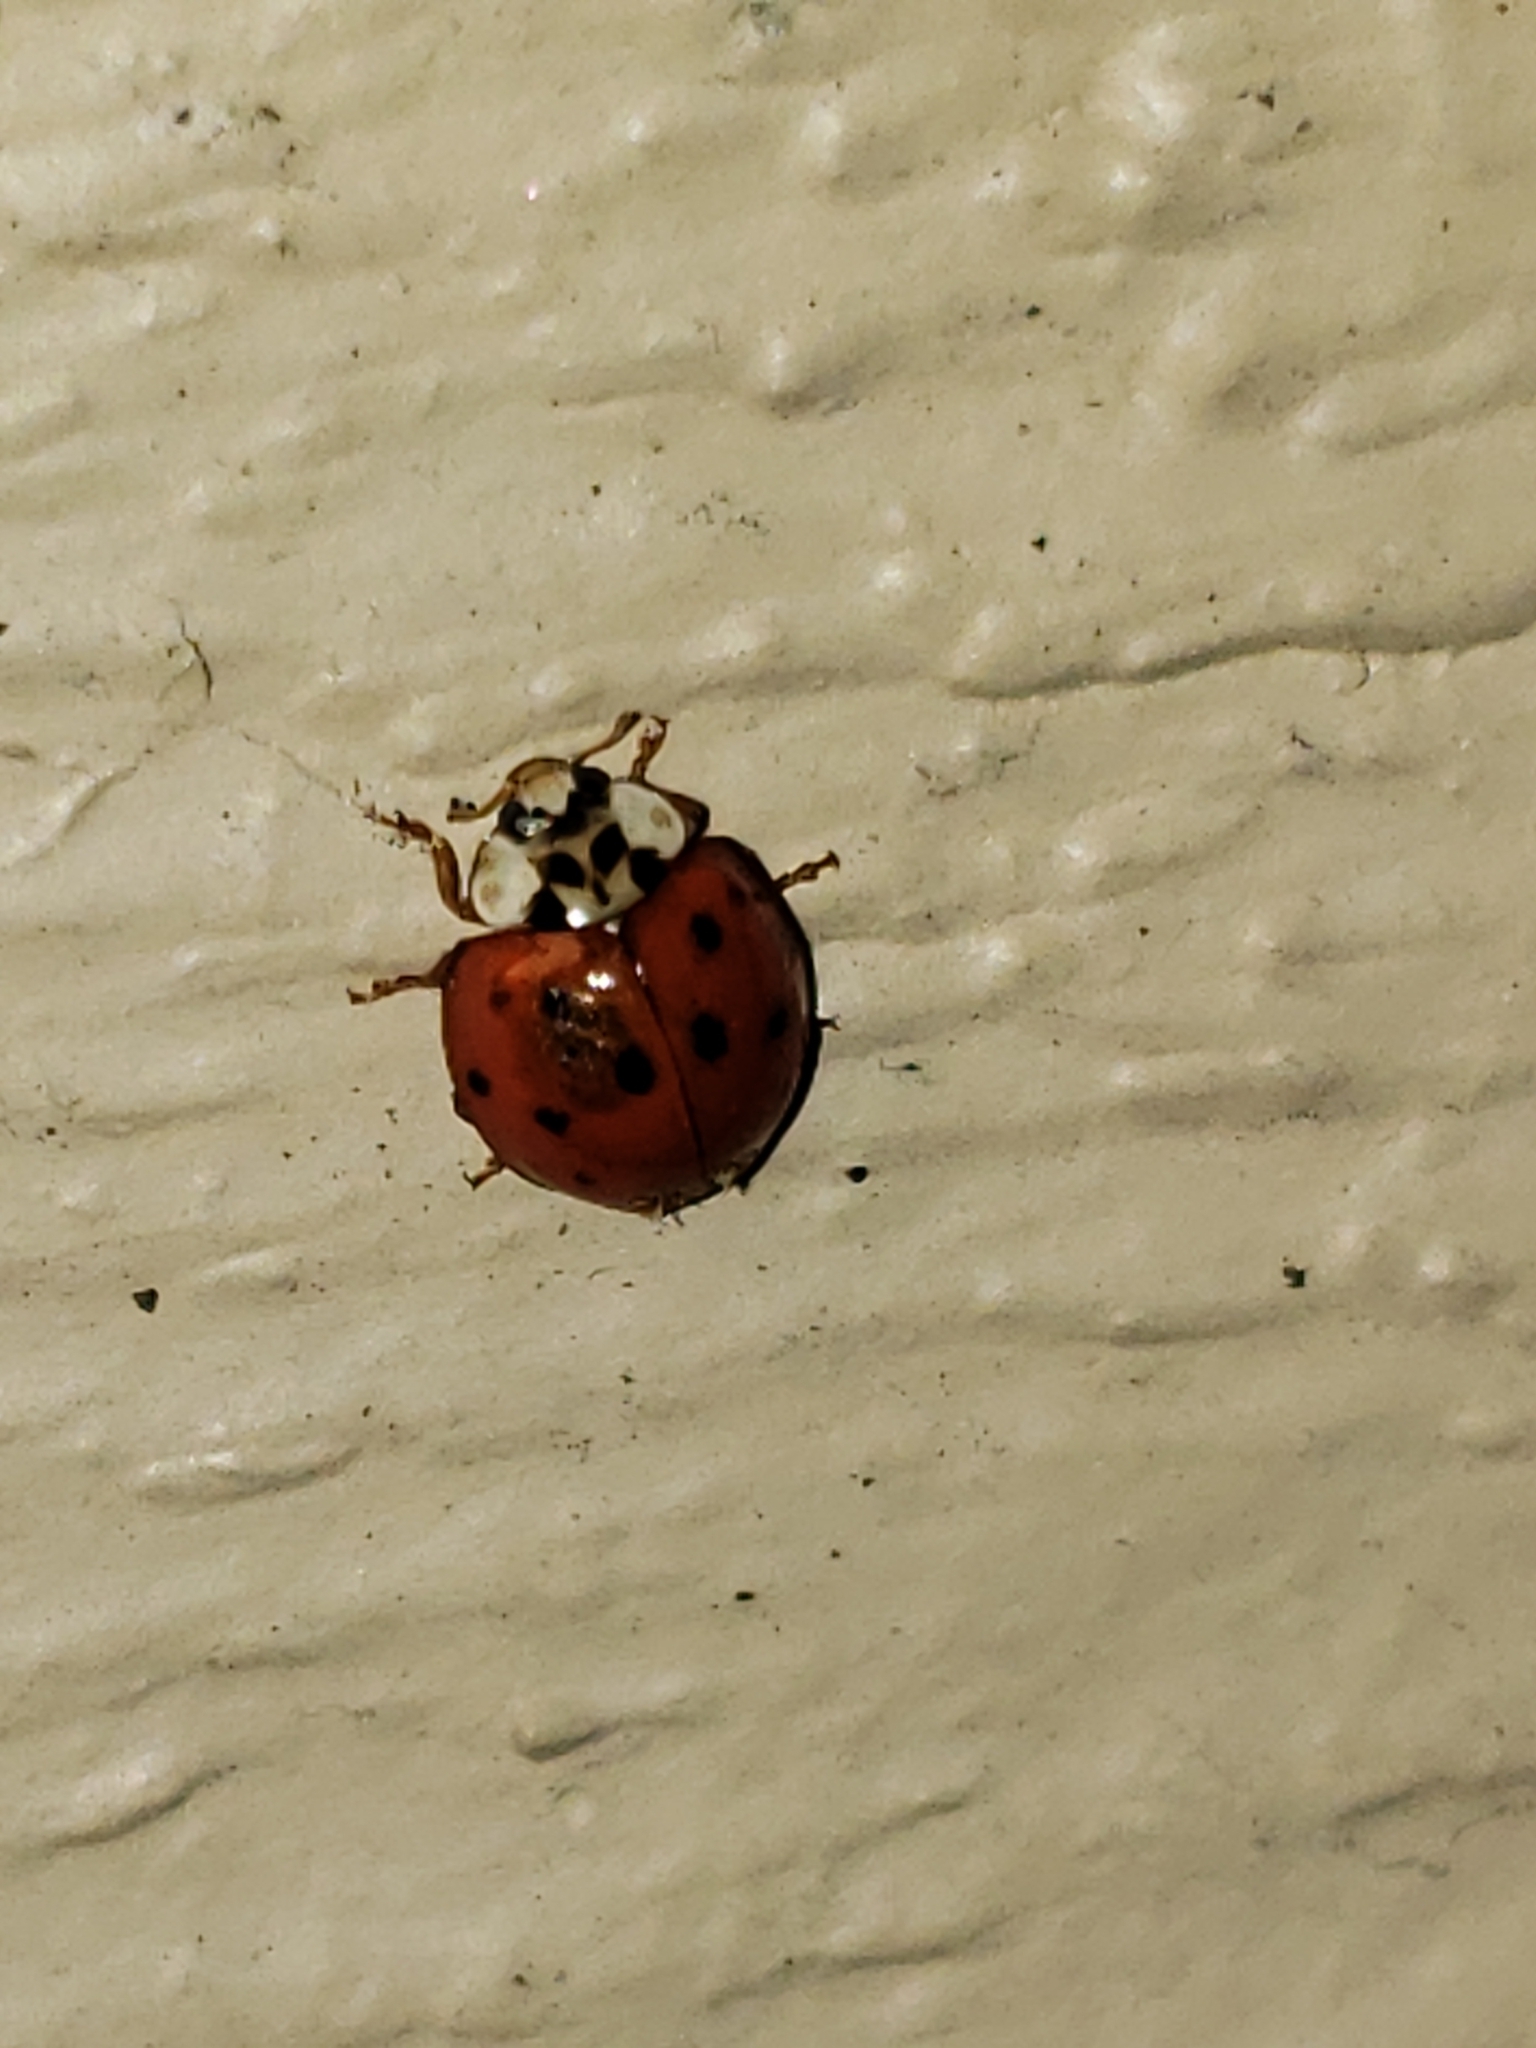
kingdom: Animalia
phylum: Arthropoda
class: Insecta
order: Coleoptera
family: Coccinellidae
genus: Harmonia
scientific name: Harmonia axyridis
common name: Harlequin ladybird
